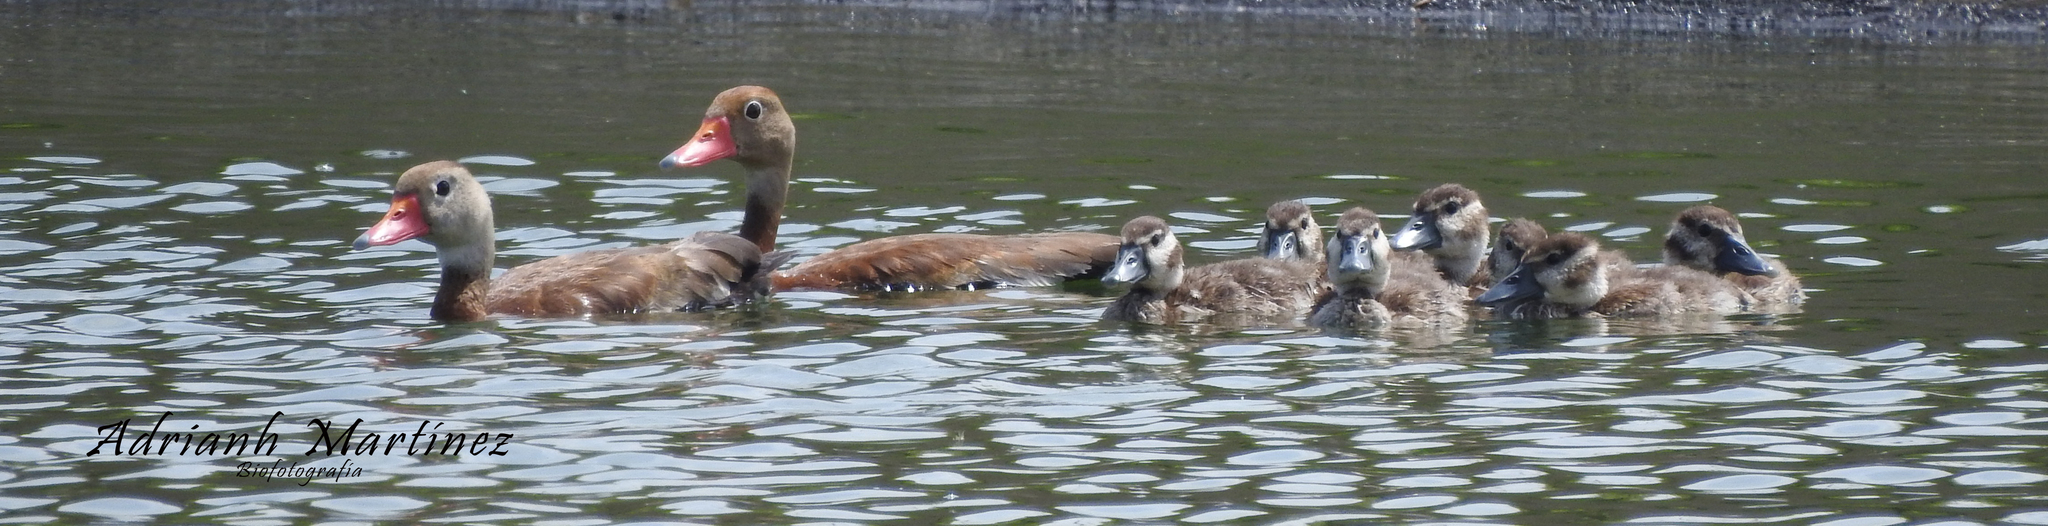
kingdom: Animalia
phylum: Chordata
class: Aves
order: Anseriformes
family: Anatidae
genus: Dendrocygna
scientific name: Dendrocygna autumnalis
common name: Black-bellied whistling duck
